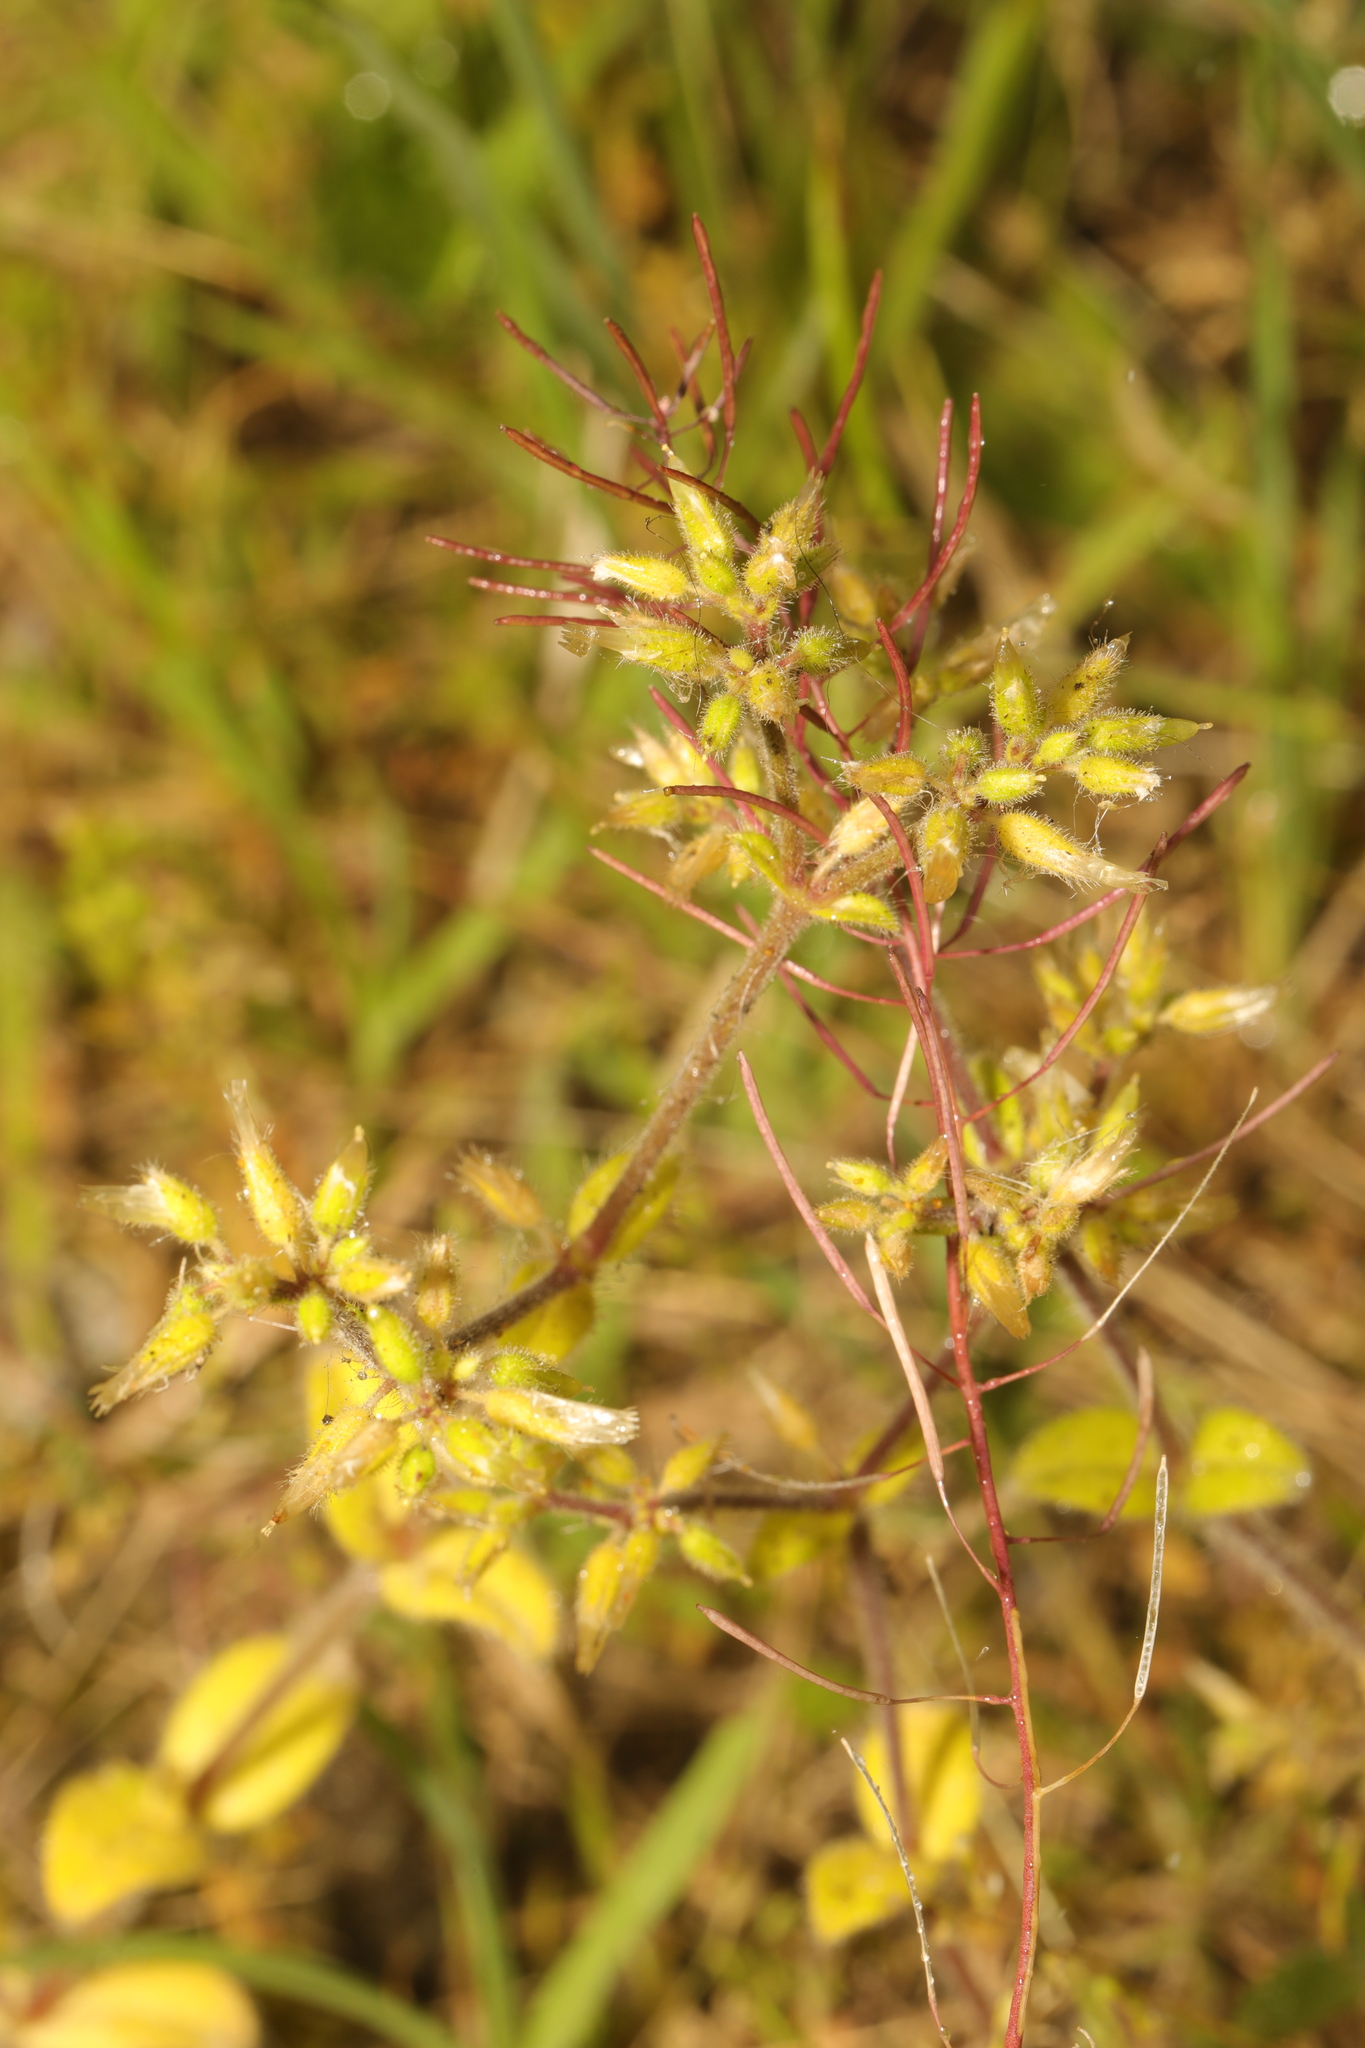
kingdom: Plantae
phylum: Tracheophyta
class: Magnoliopsida
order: Caryophyllales
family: Caryophyllaceae
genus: Cerastium
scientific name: Cerastium glomeratum
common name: Sticky chickweed
